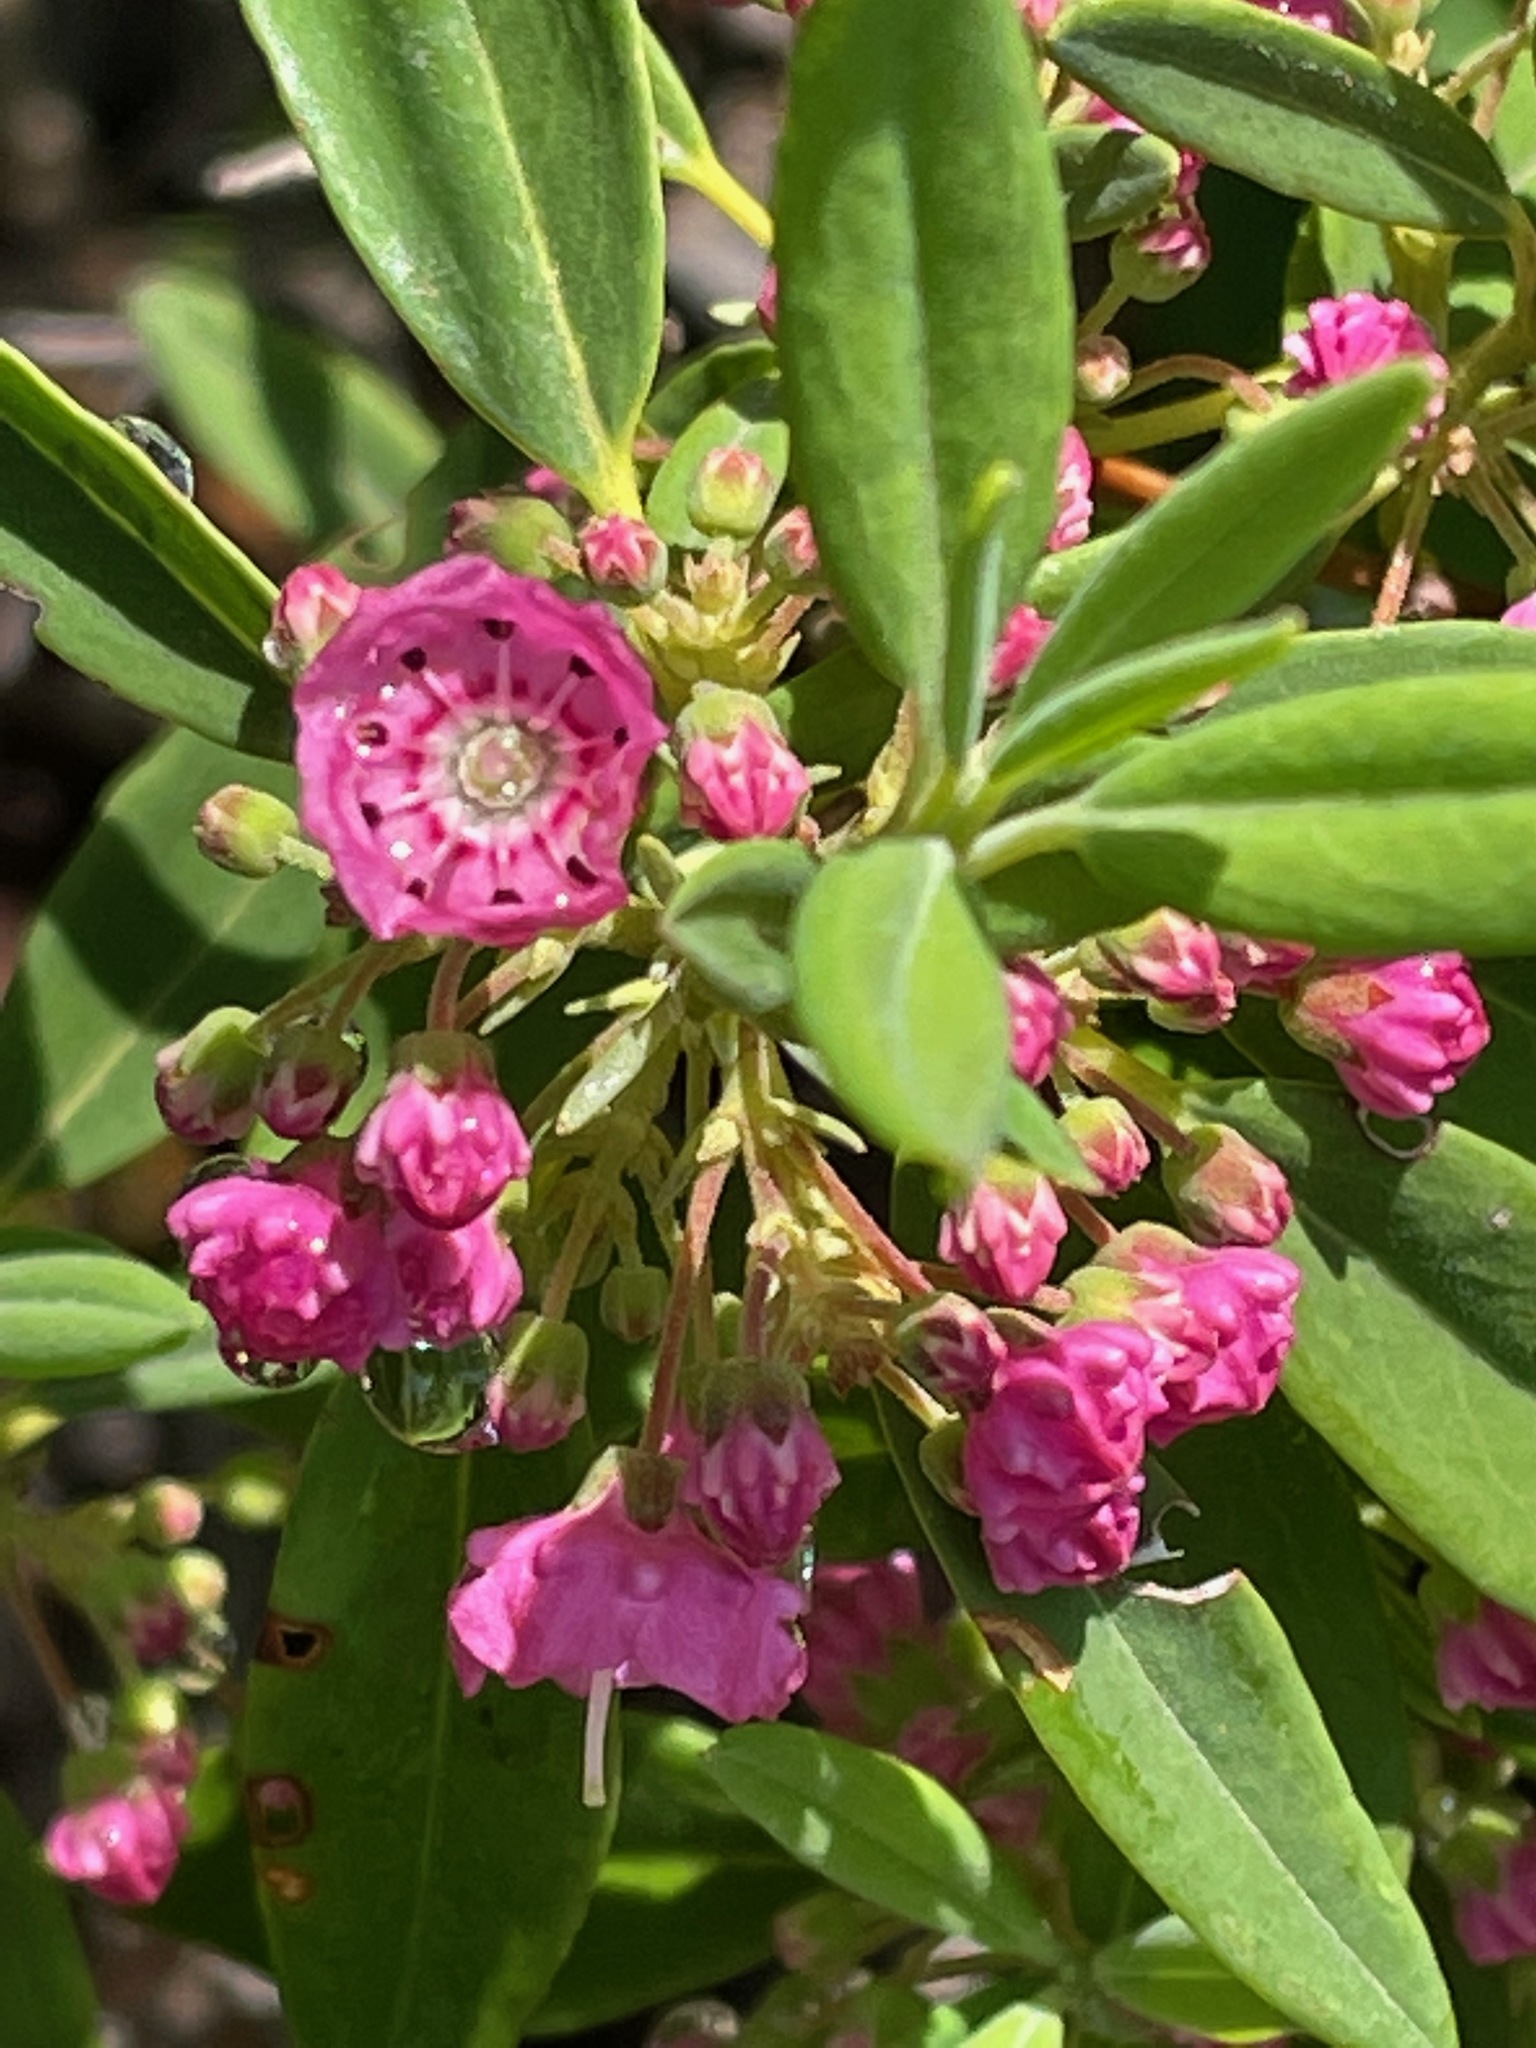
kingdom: Plantae
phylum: Tracheophyta
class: Magnoliopsida
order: Ericales
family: Ericaceae
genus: Kalmia
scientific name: Kalmia angustifolia
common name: Sheep-laurel
